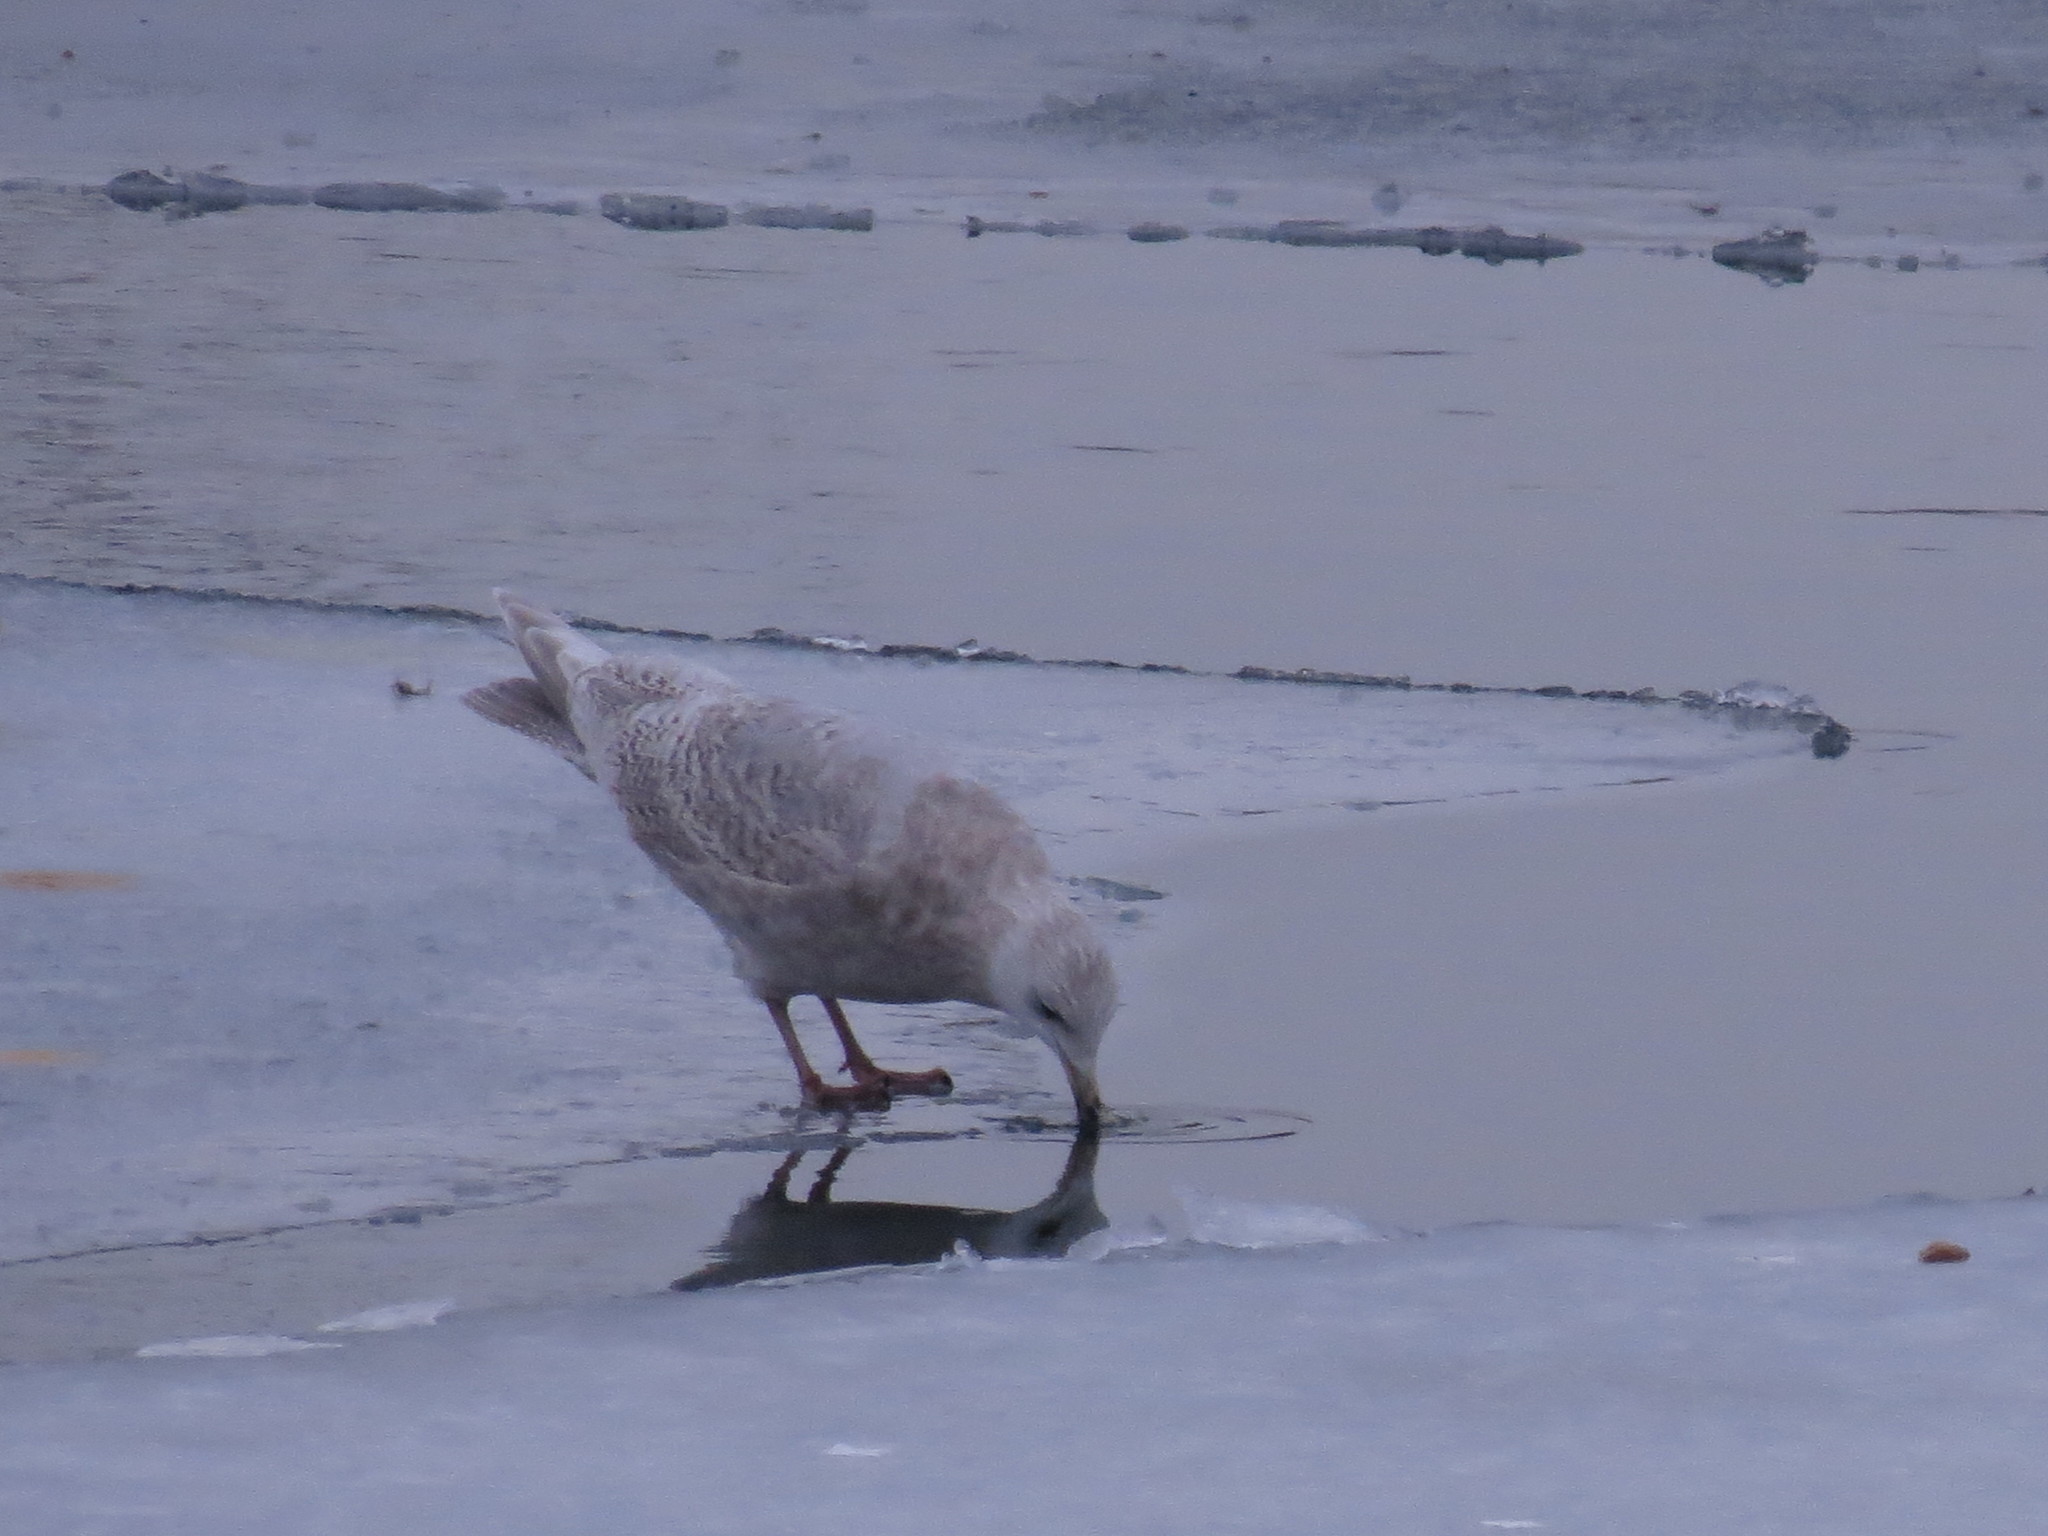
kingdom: Animalia
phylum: Chordata
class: Aves
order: Charadriiformes
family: Laridae
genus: Larus
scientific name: Larus glaucoides
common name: Iceland gull
